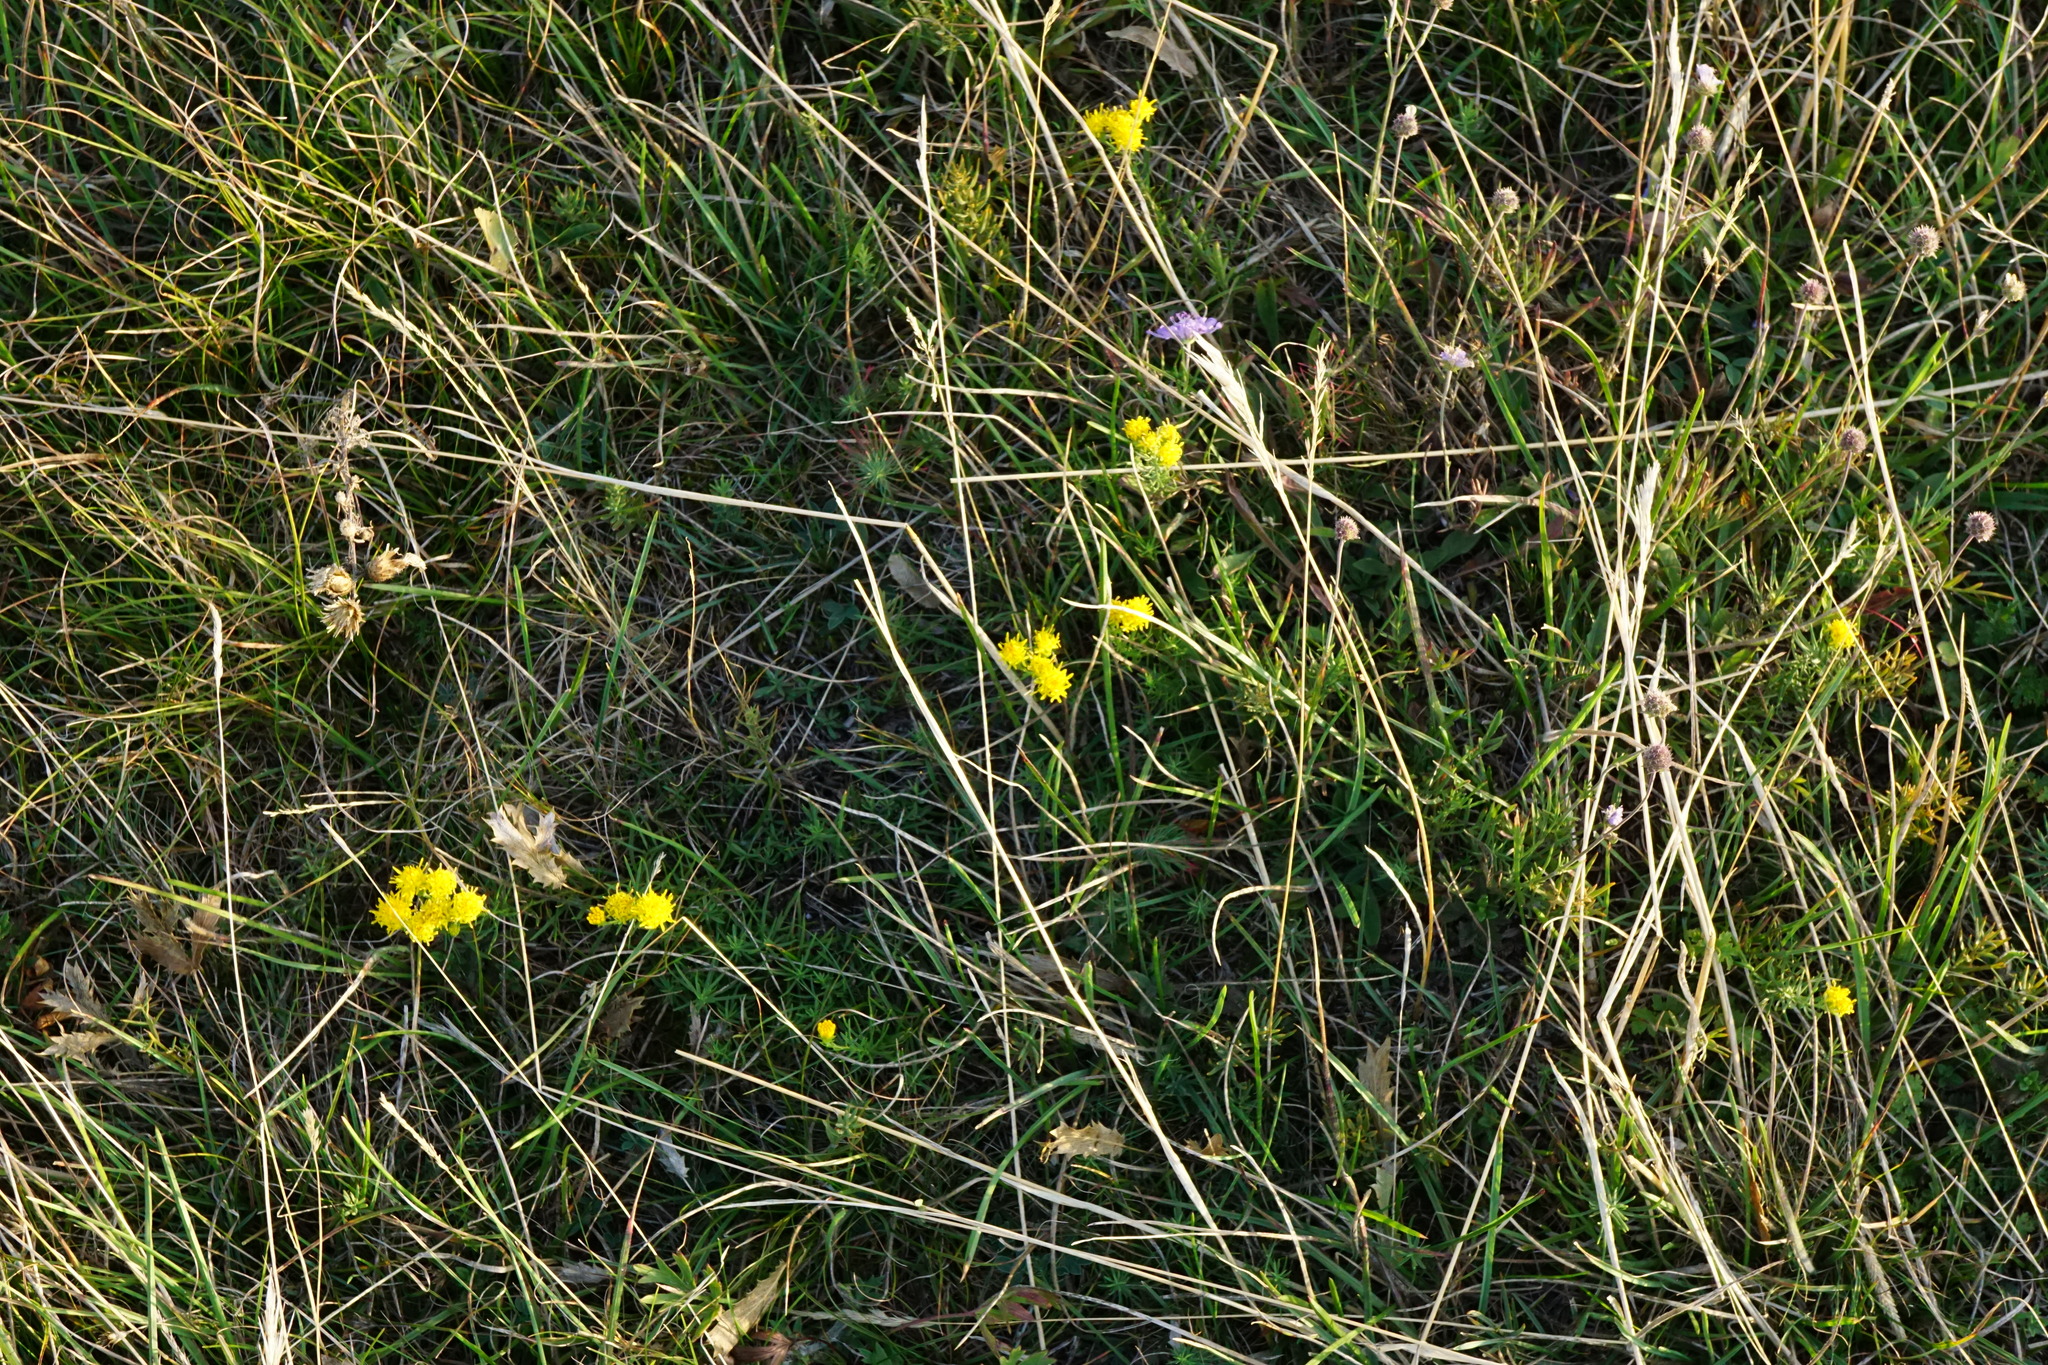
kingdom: Plantae
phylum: Tracheophyta
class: Magnoliopsida
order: Asterales
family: Asteraceae
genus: Galatella
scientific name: Galatella linosyris
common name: Goldilocks aster
